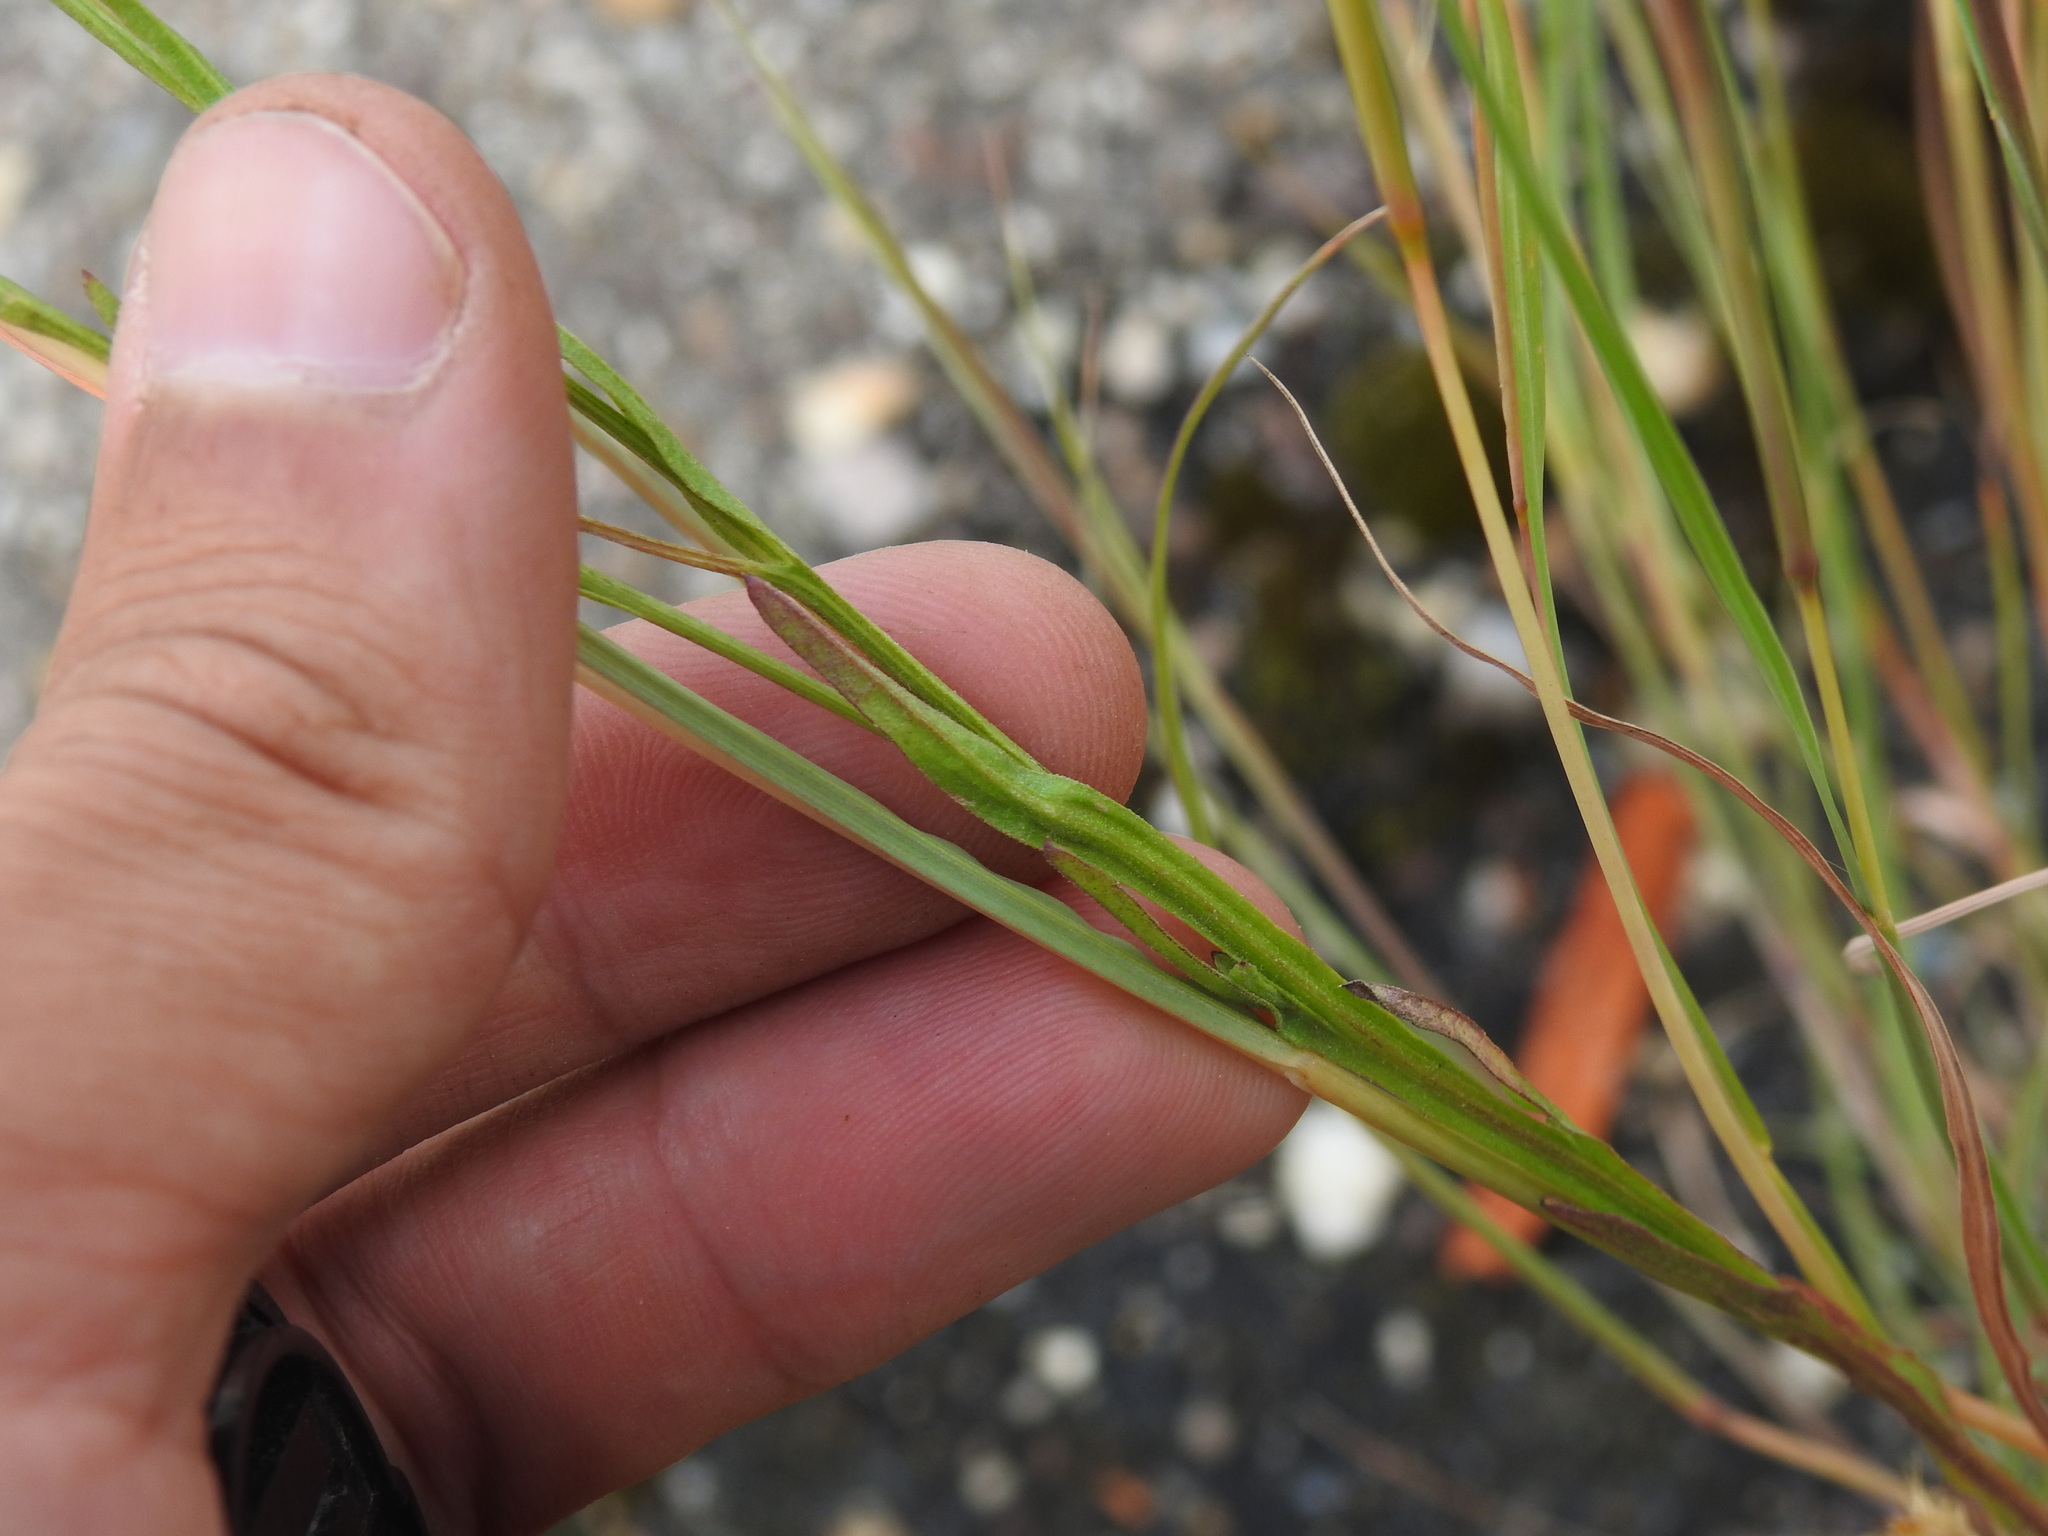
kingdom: Plantae
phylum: Tracheophyta
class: Magnoliopsida
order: Asterales
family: Asteraceae
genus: Centaurea
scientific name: Centaurea melitensis
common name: Maltese star-thistle
